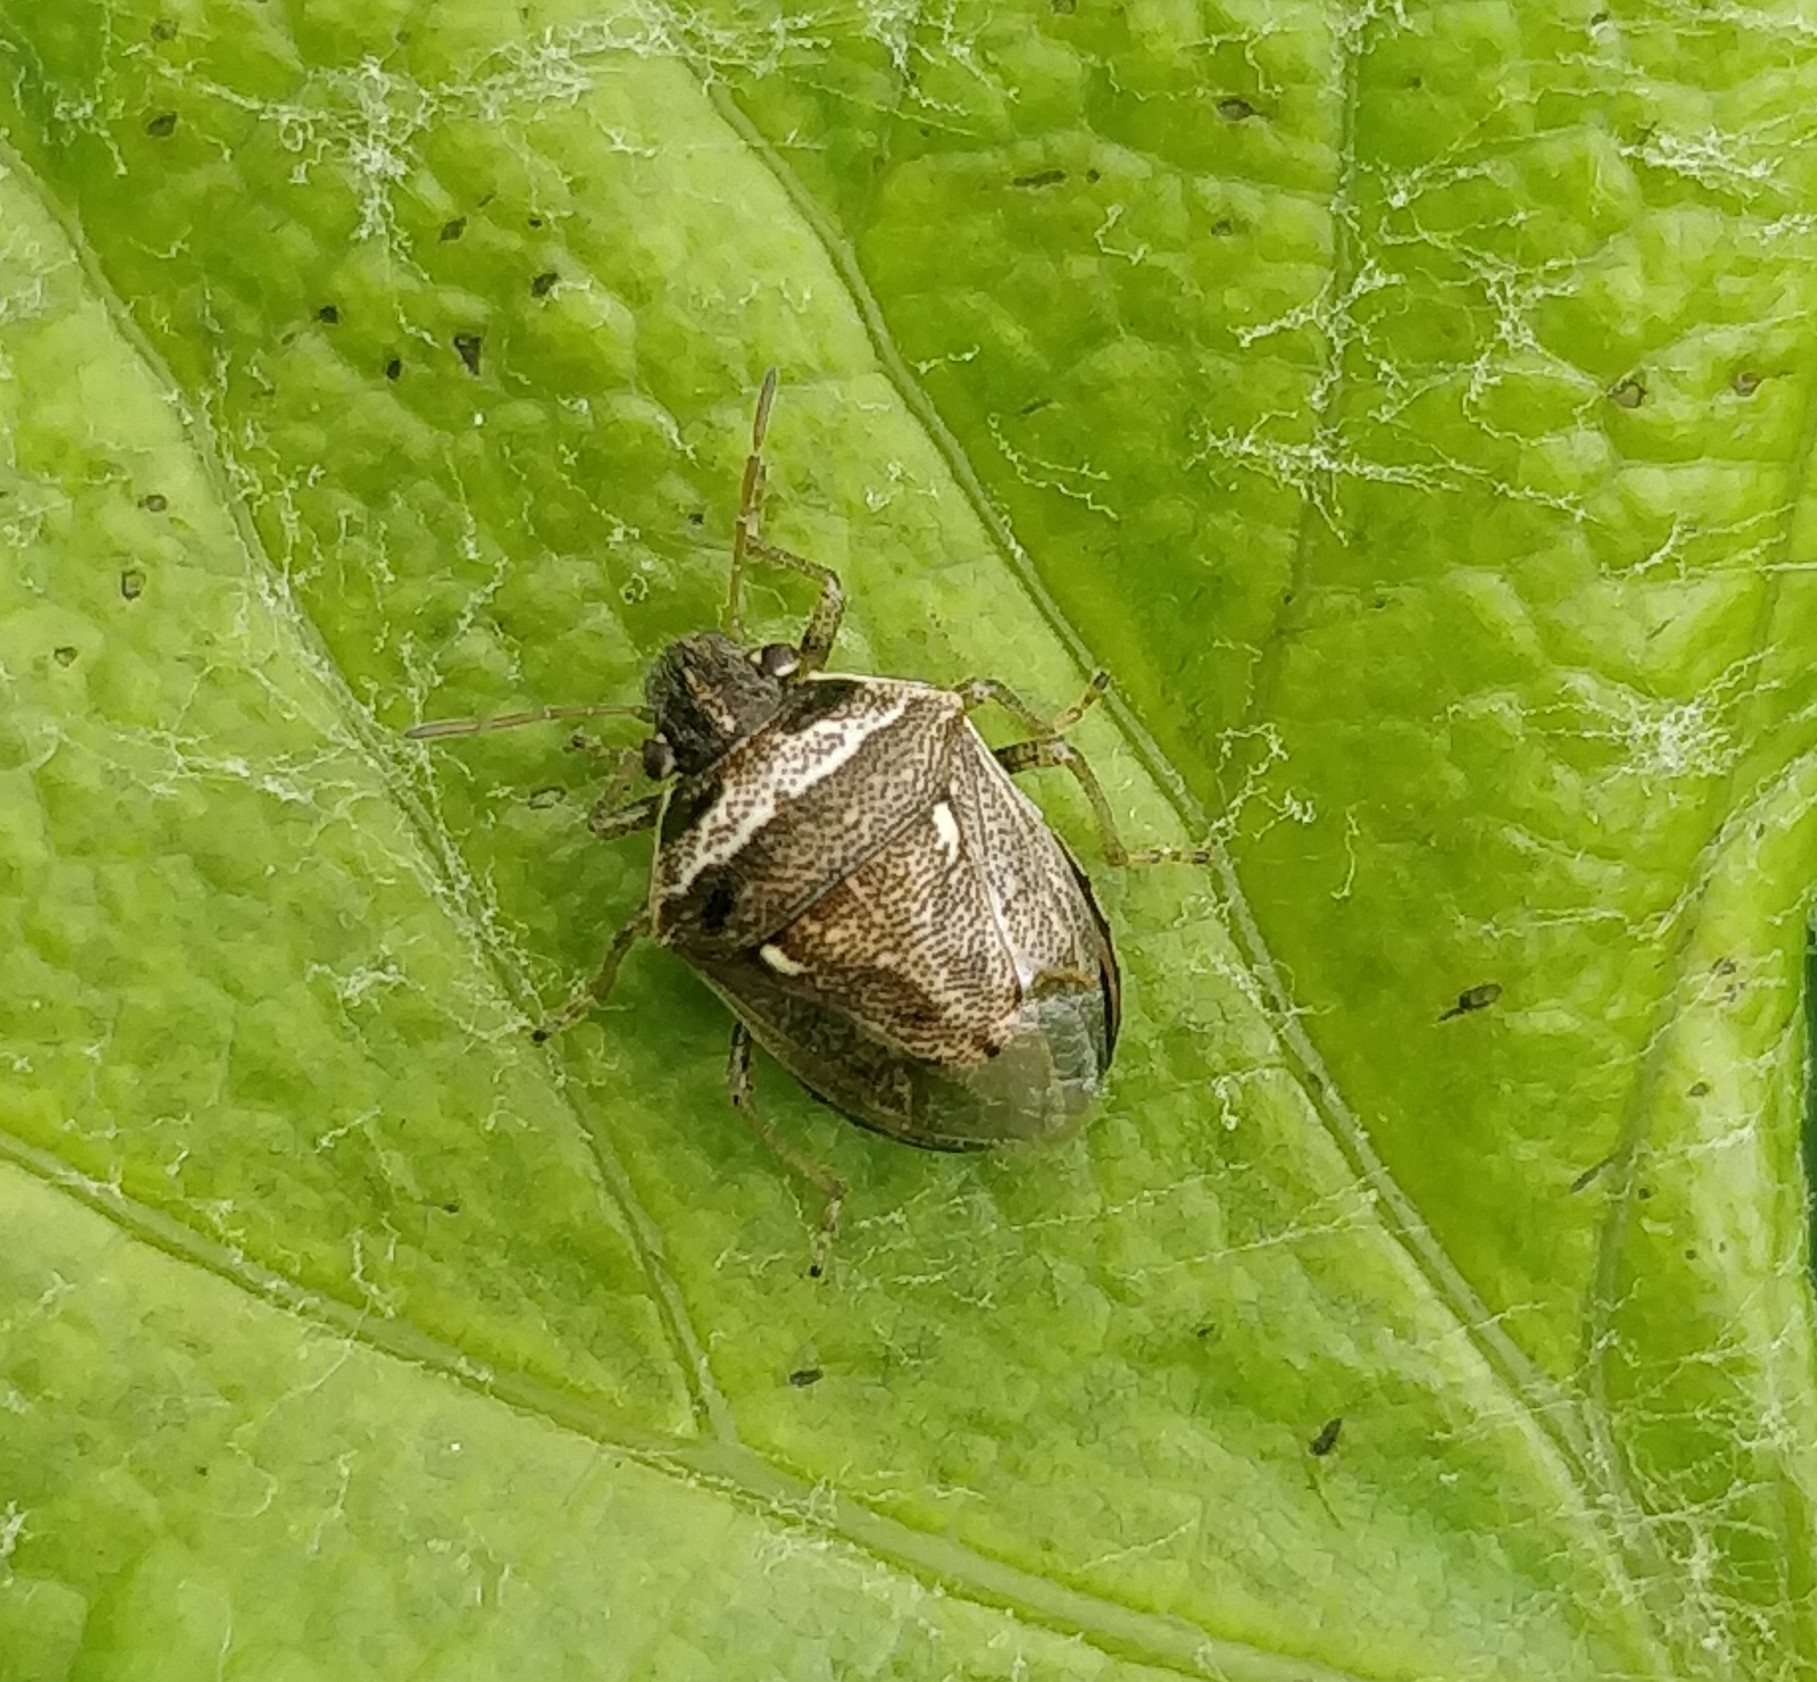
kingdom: Animalia
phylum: Arthropoda
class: Insecta
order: Hemiptera
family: Pentatomidae
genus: Eysarcoris
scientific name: Eysarcoris ventralis
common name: White-spotted stink bug
